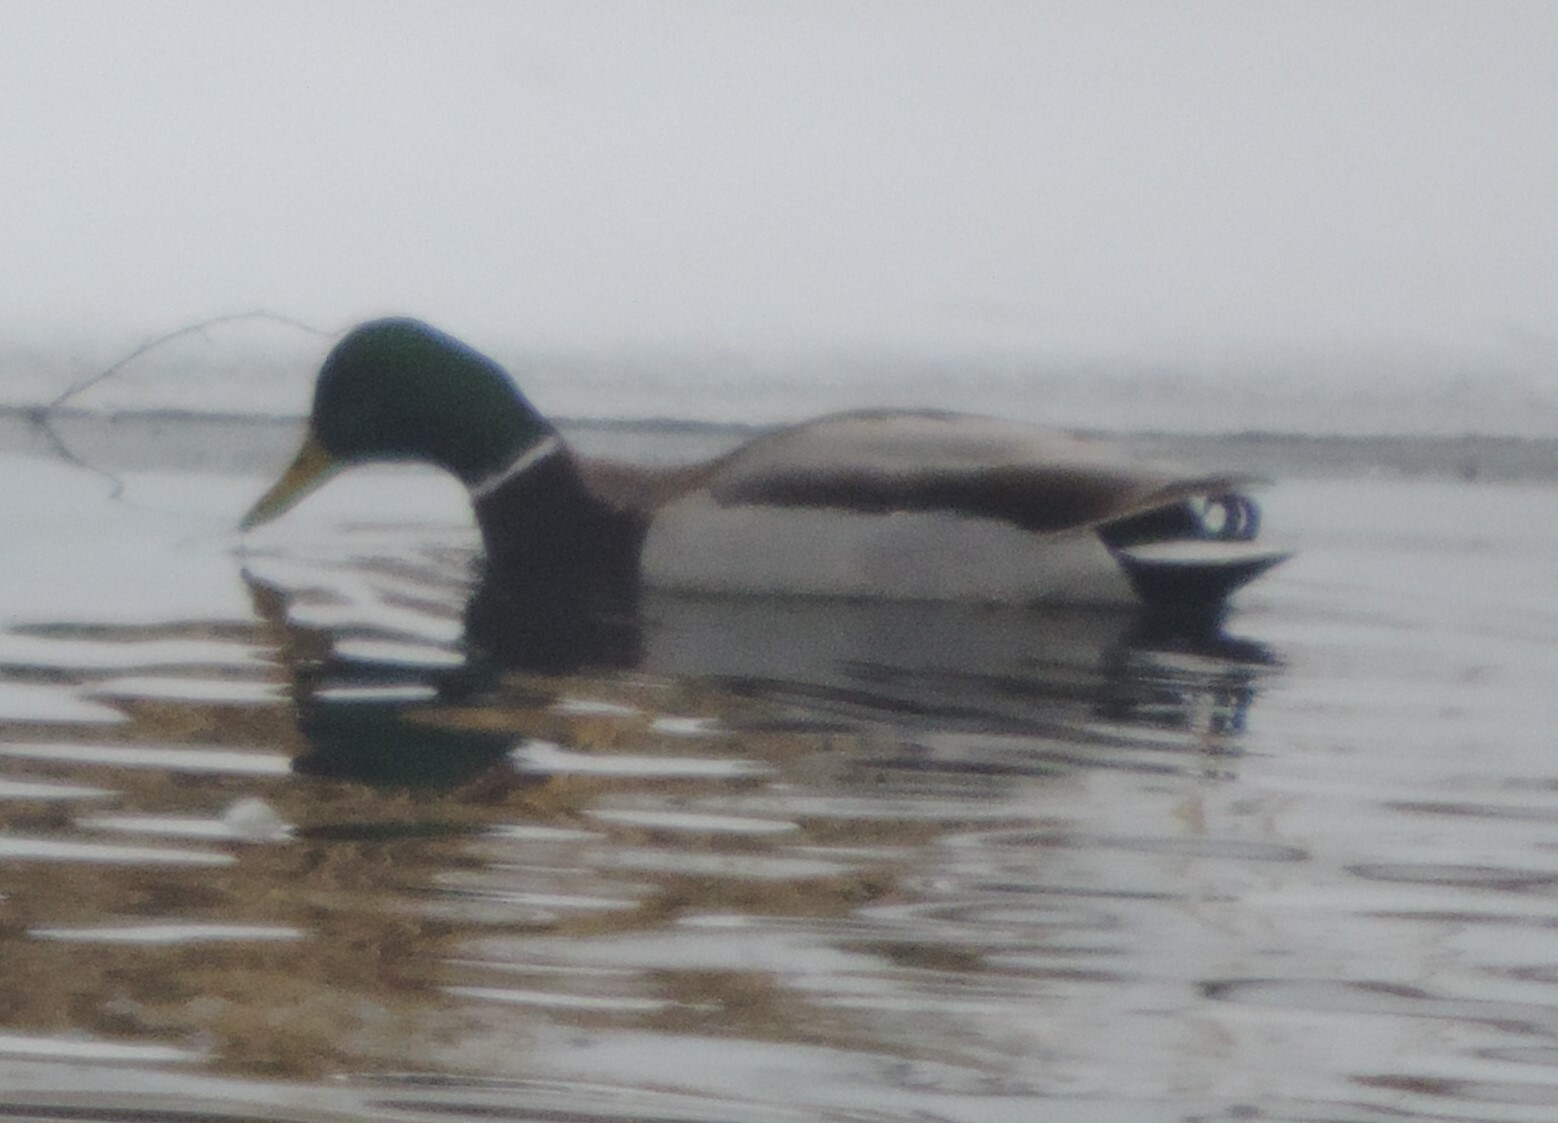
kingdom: Animalia
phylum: Chordata
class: Aves
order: Anseriformes
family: Anatidae
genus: Anas
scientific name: Anas platyrhynchos
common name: Mallard
